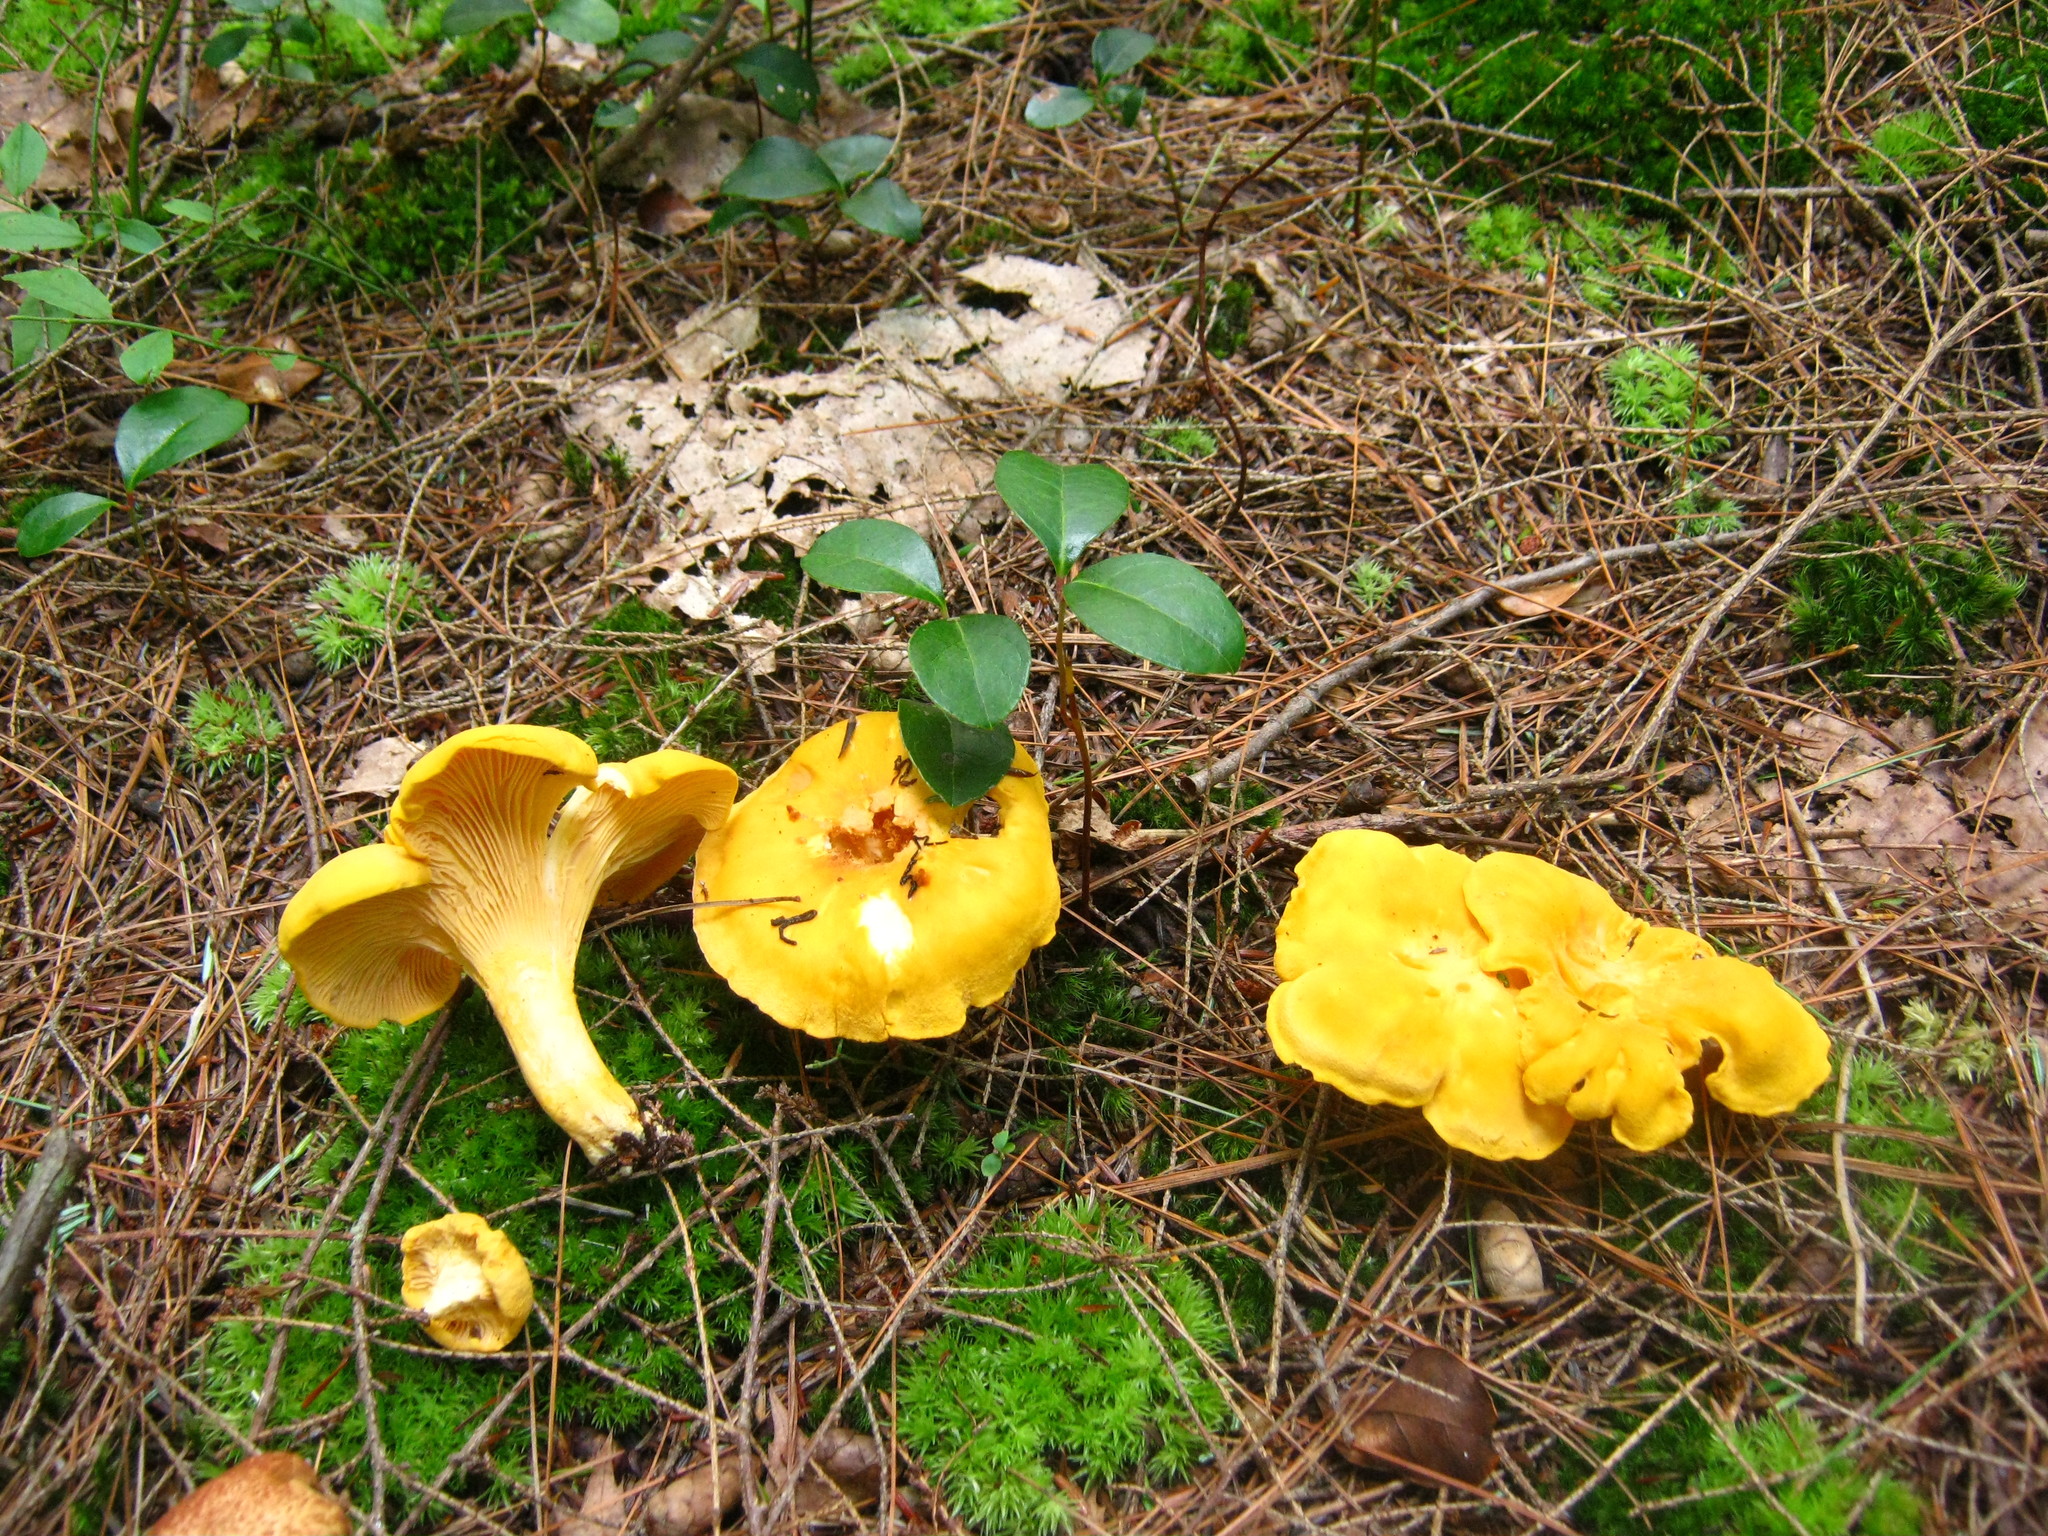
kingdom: Fungi
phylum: Basidiomycota
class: Agaricomycetes
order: Cantharellales
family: Hydnaceae
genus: Cantharellus
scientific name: Cantharellus enelensis
